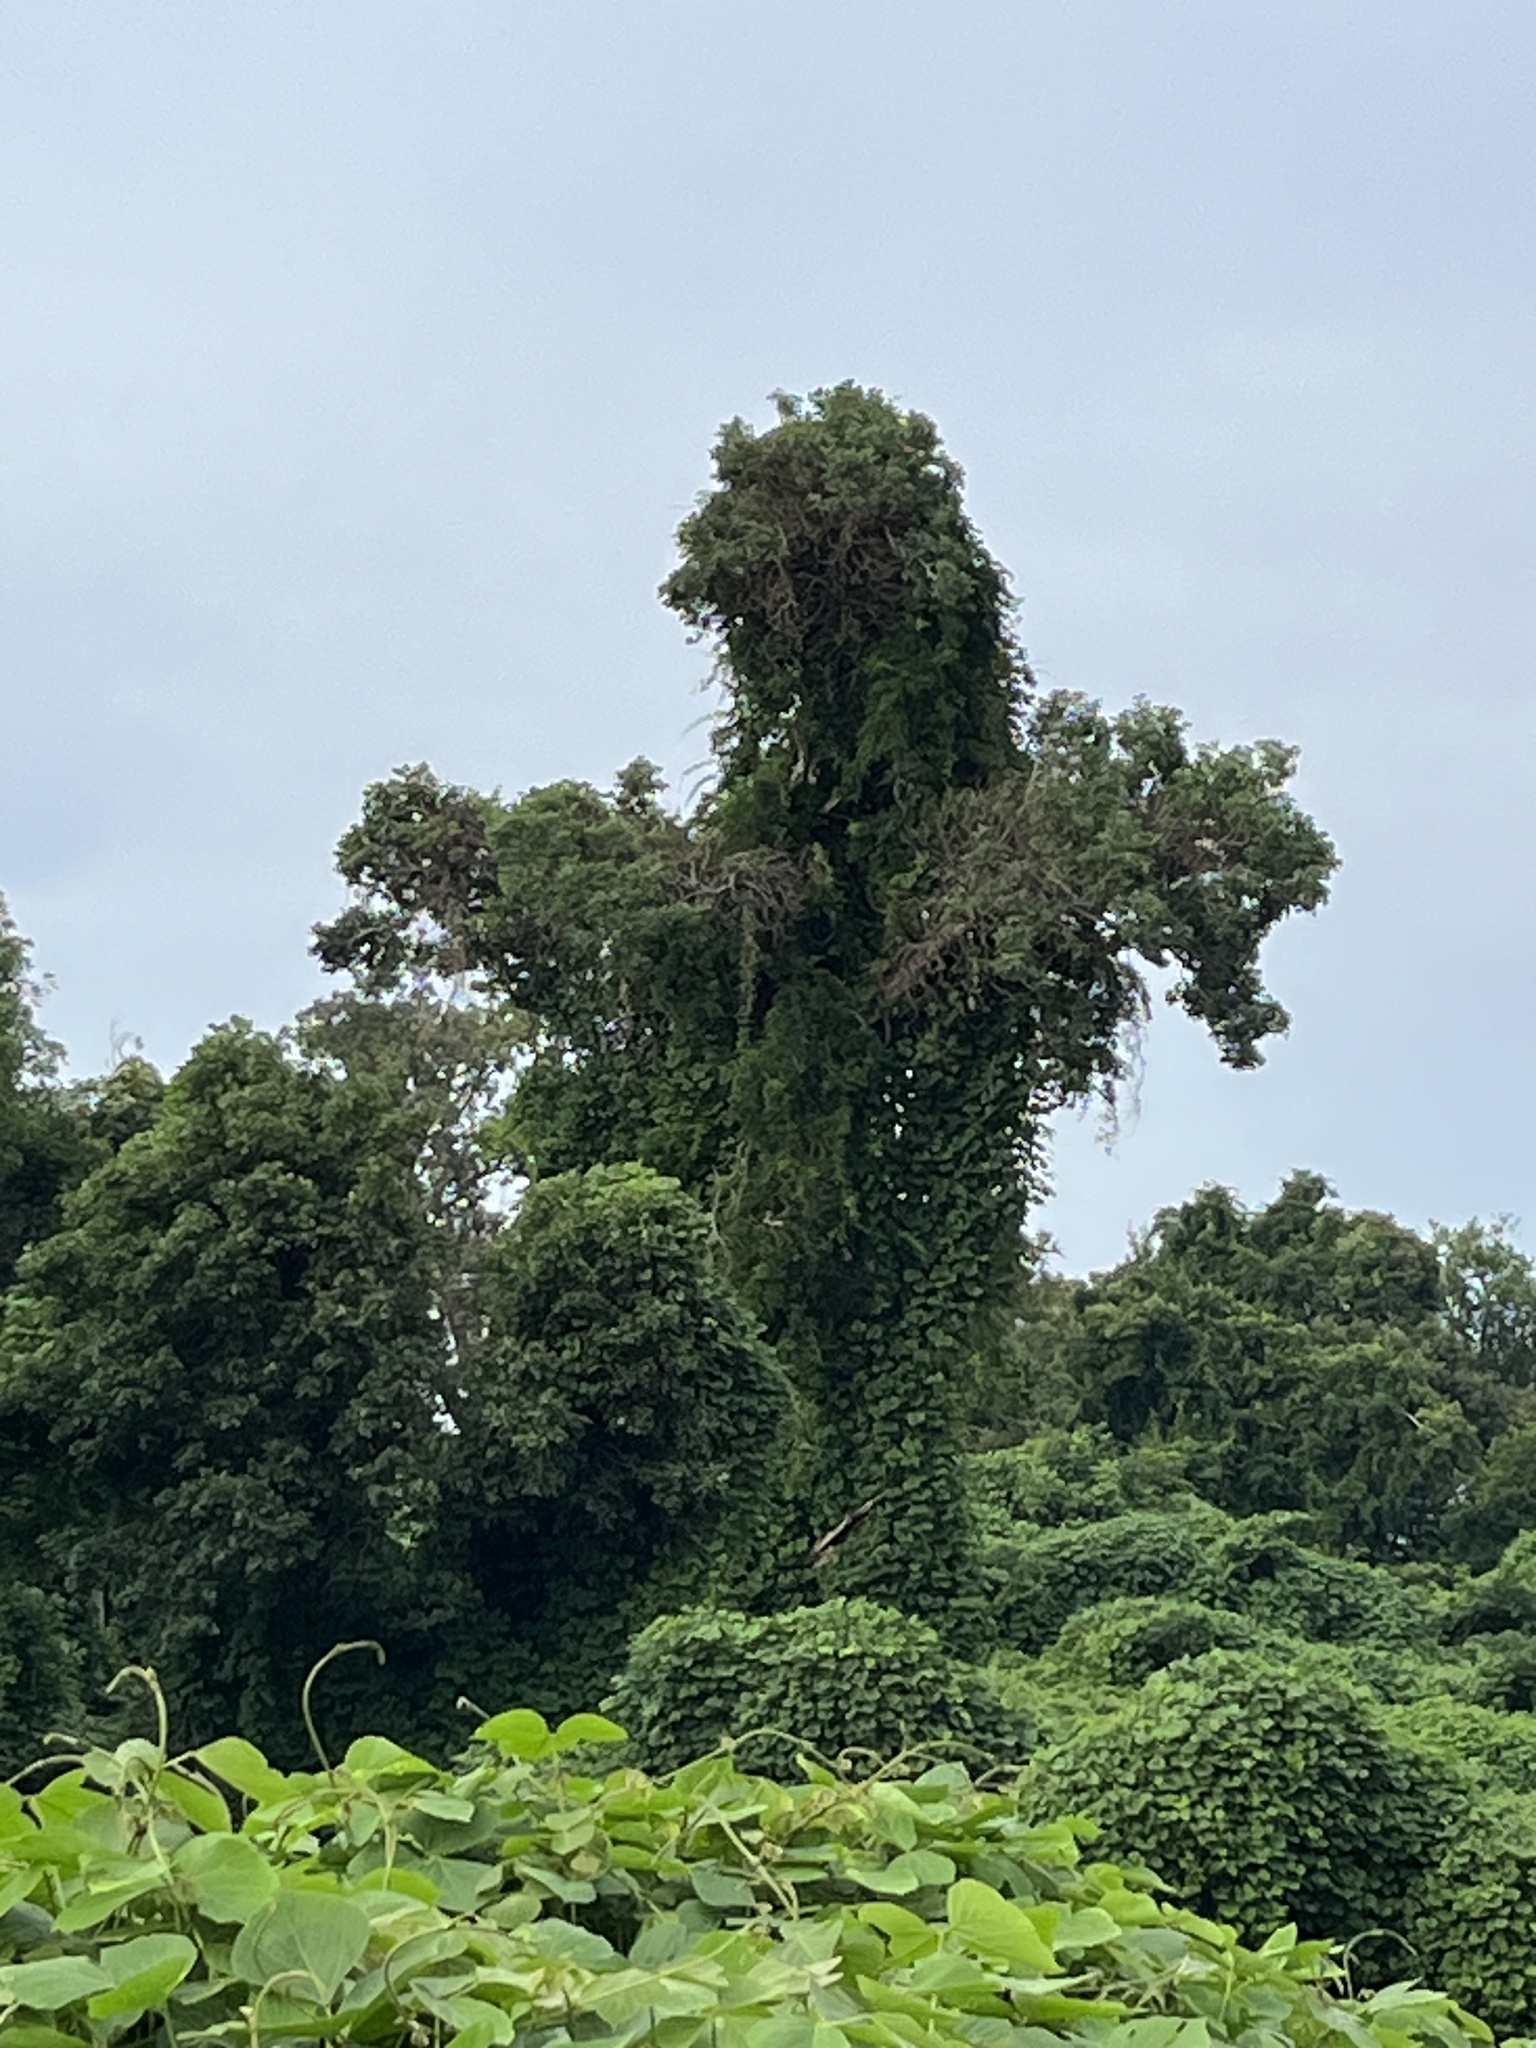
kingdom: Plantae
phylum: Tracheophyta
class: Magnoliopsida
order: Fabales
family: Fabaceae
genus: Pueraria
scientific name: Pueraria montana
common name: Kudzu
